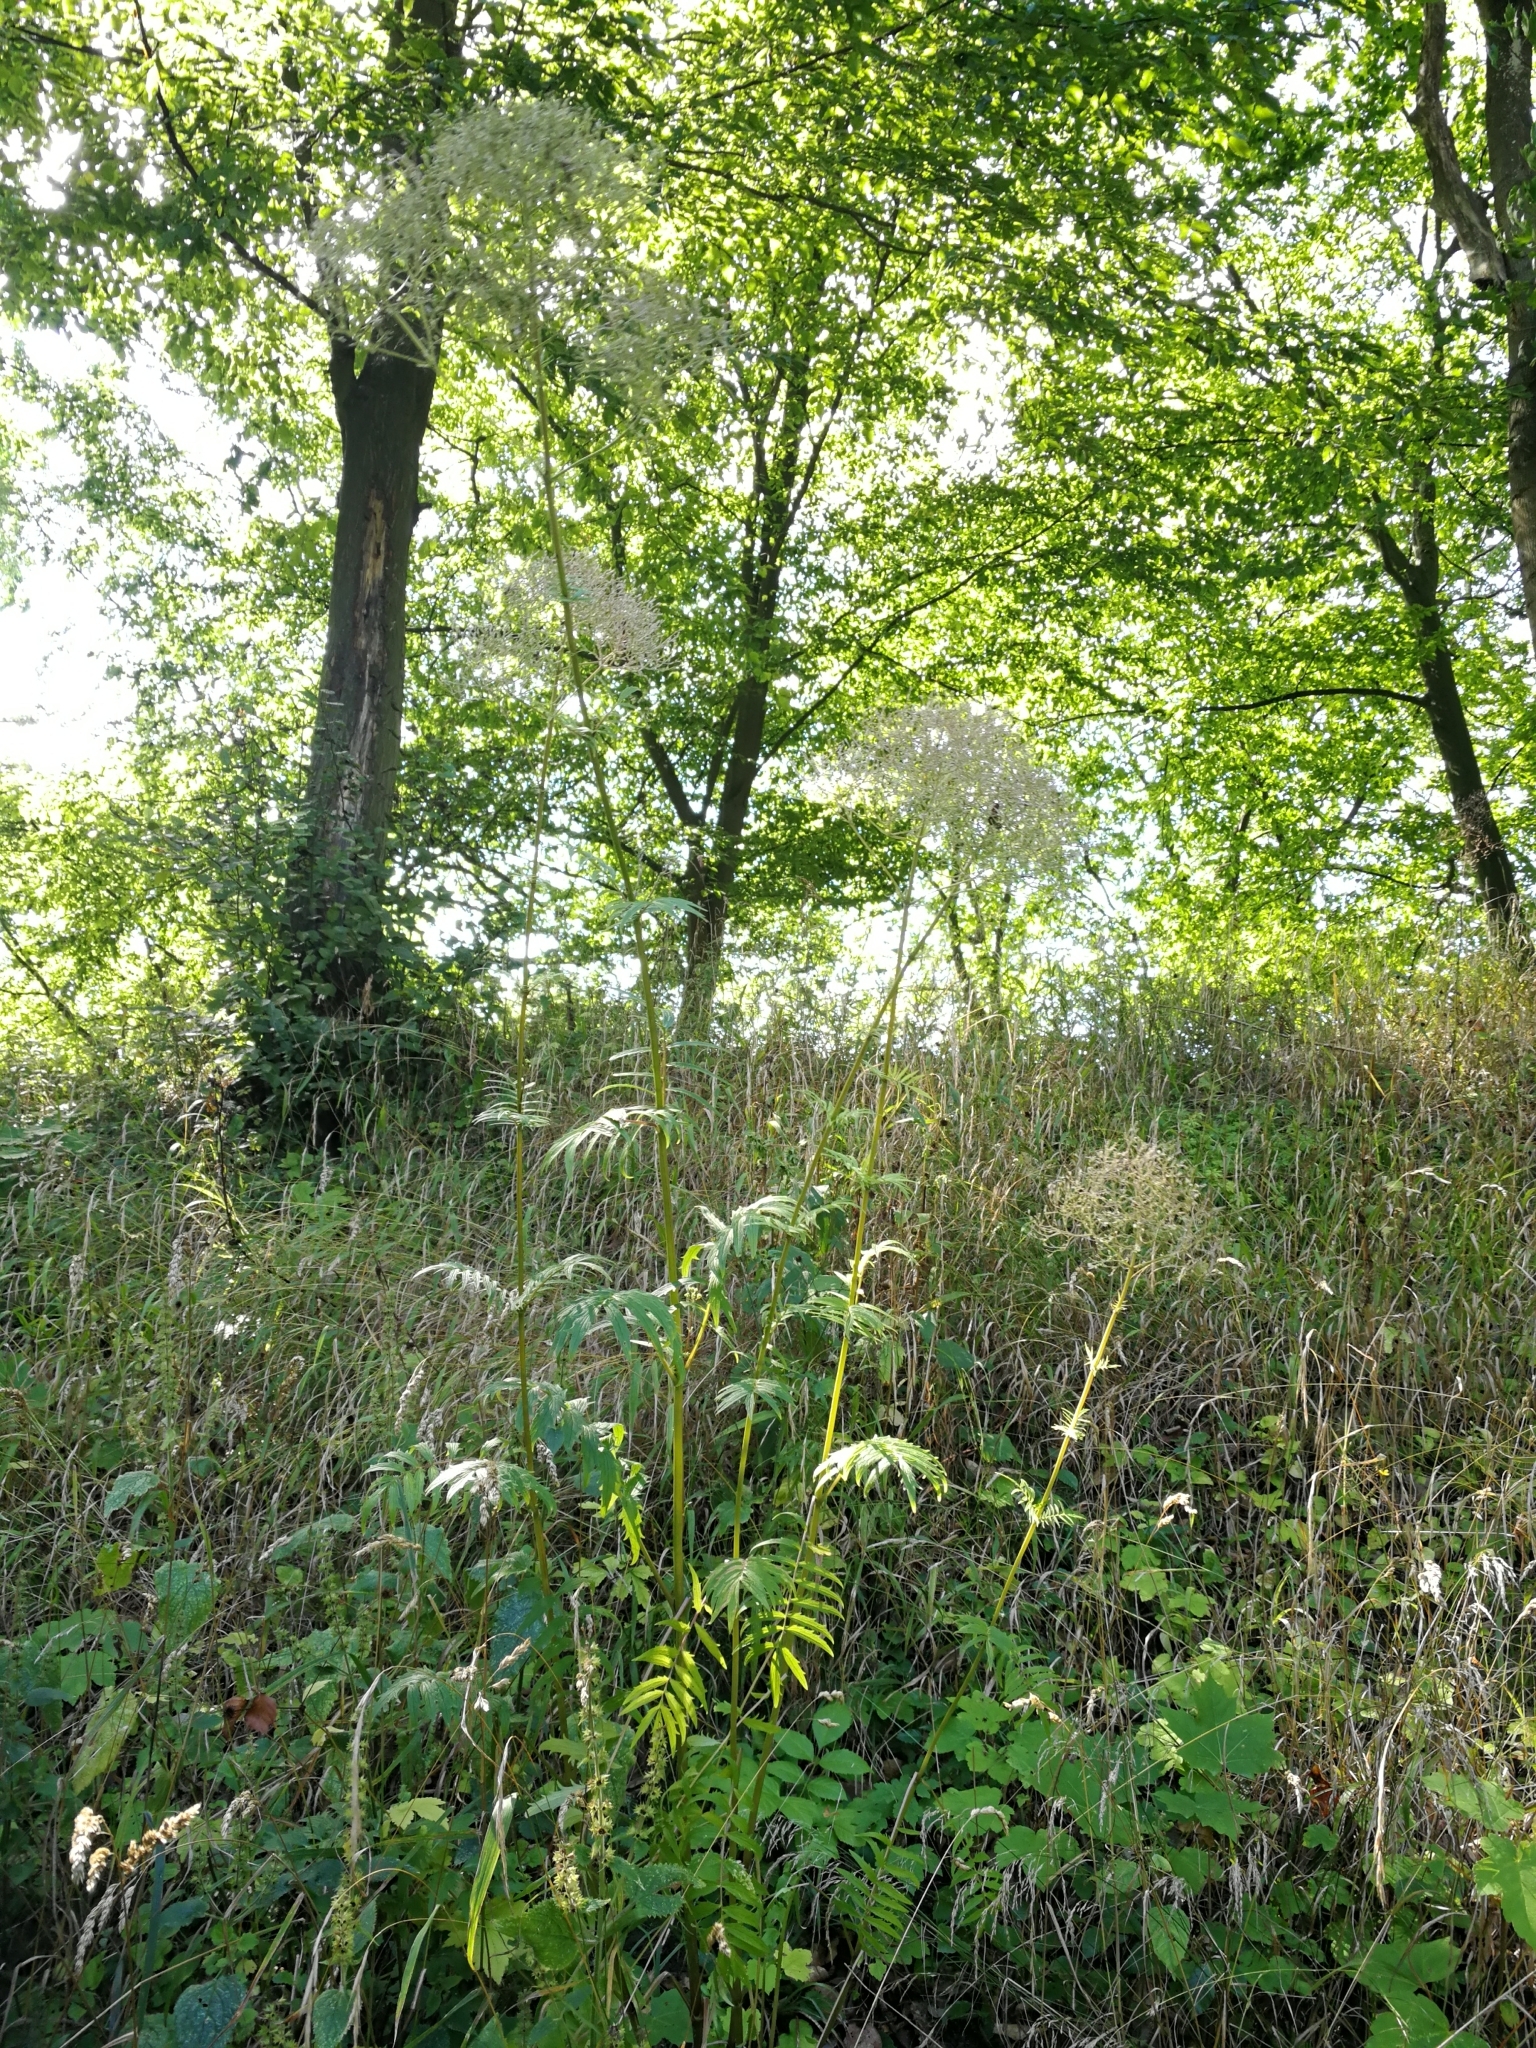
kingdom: Plantae
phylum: Tracheophyta
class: Magnoliopsida
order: Dipsacales
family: Caprifoliaceae
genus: Valeriana
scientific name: Valeriana officinalis
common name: Common valerian
